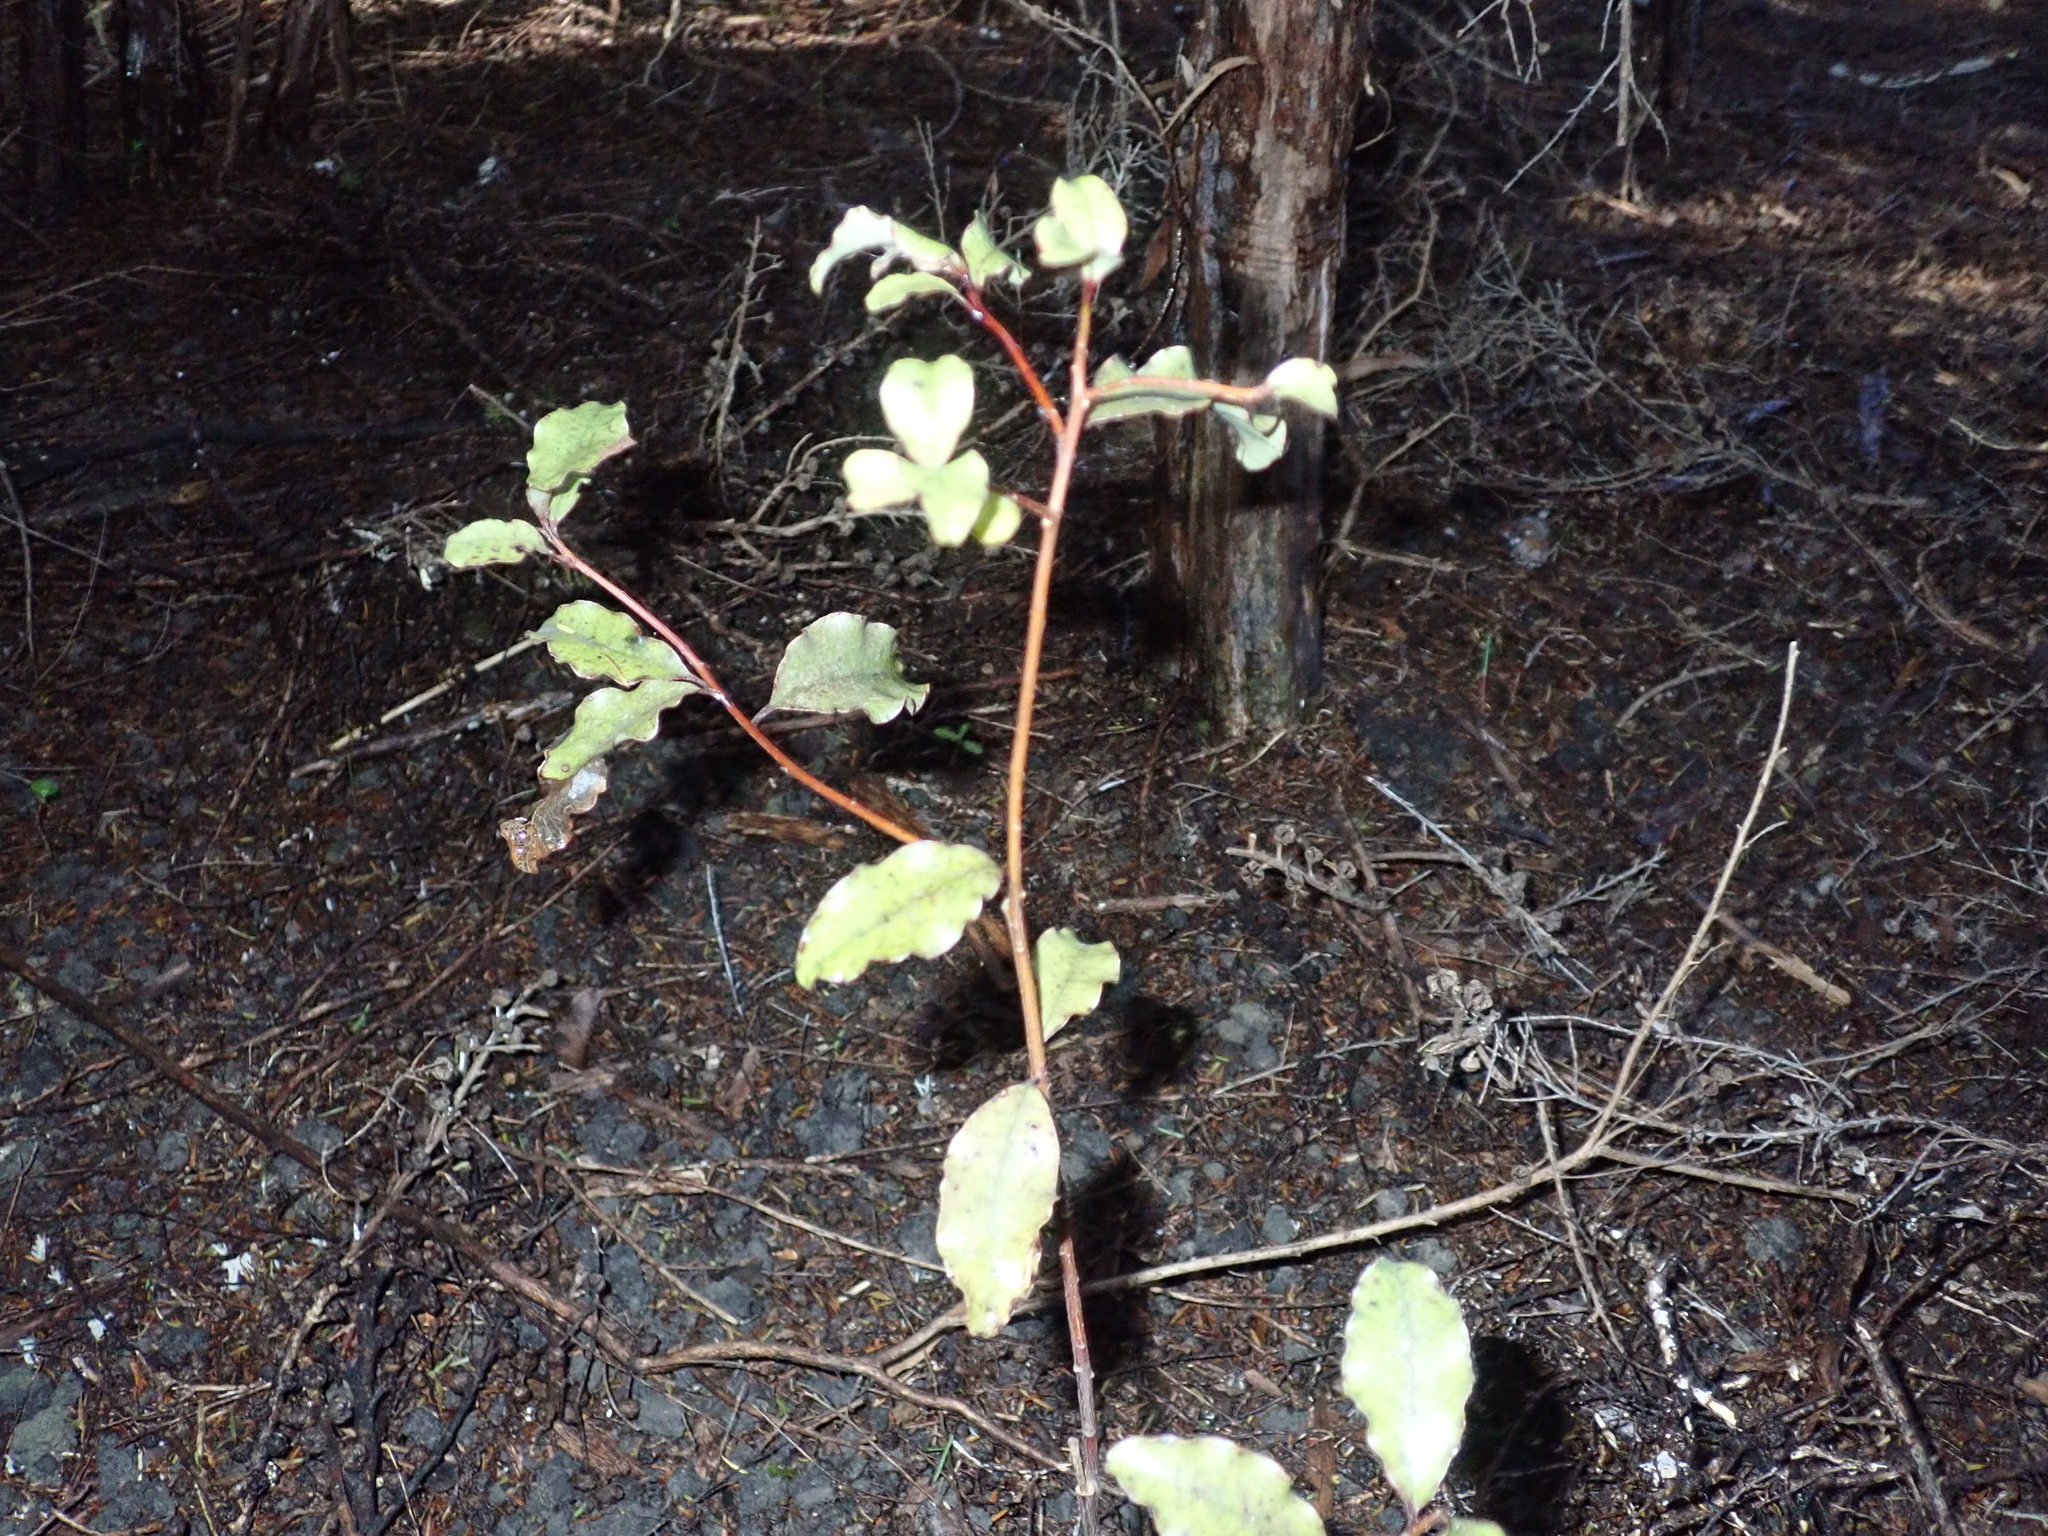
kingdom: Plantae
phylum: Tracheophyta
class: Magnoliopsida
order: Ericales
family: Primulaceae
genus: Myrsine
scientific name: Myrsine australis
